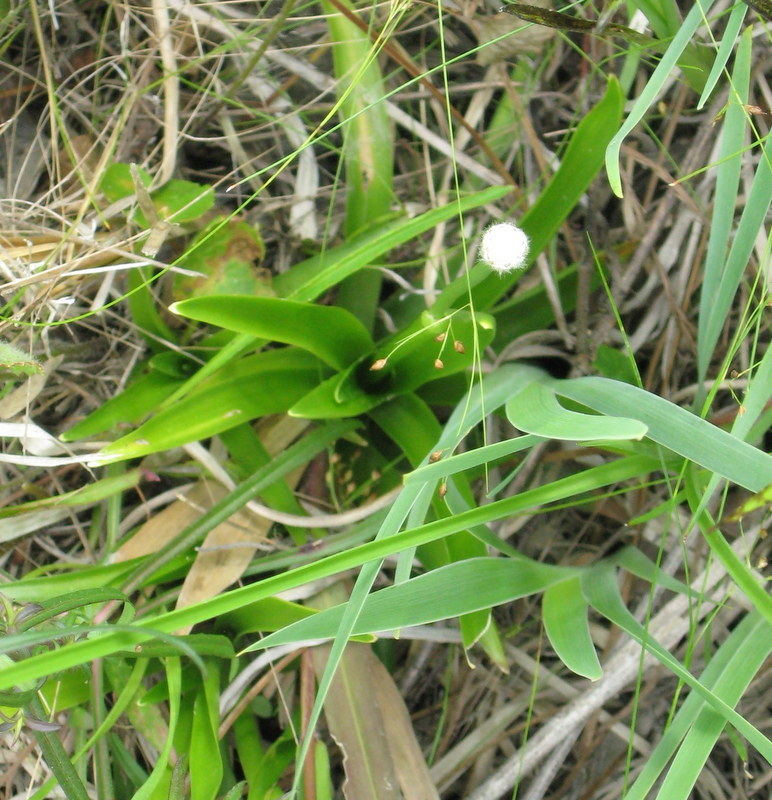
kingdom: Plantae
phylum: Tracheophyta
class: Liliopsida
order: Poales
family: Eriocaulaceae
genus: Eriocaulon
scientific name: Eriocaulon decangulare
